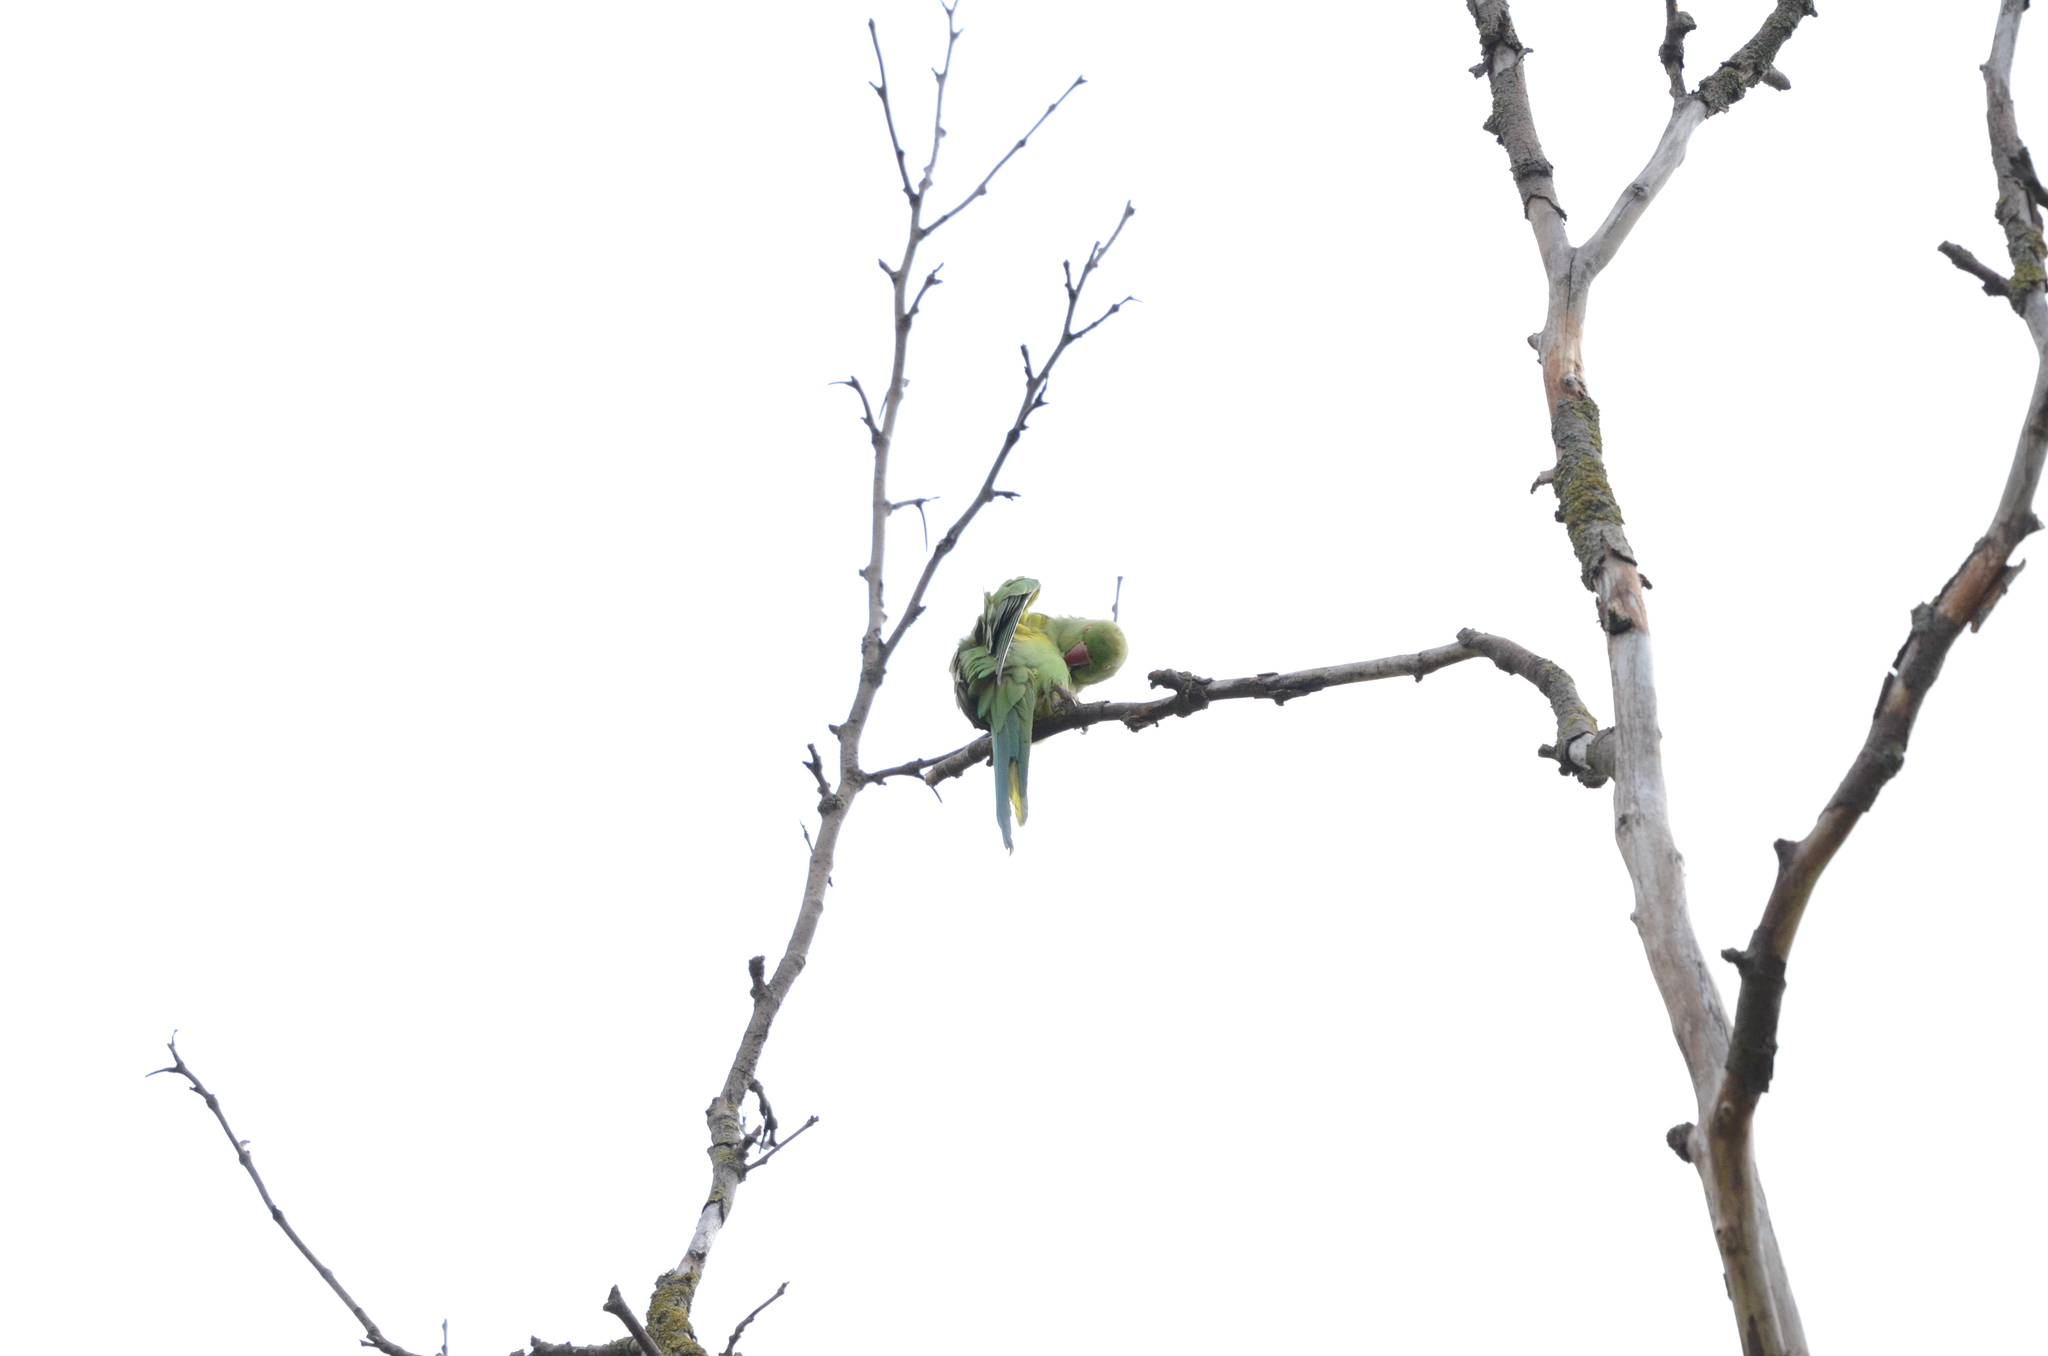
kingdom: Animalia
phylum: Chordata
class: Aves
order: Psittaciformes
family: Psittacidae
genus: Psittacula
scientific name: Psittacula krameri
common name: Rose-ringed parakeet
